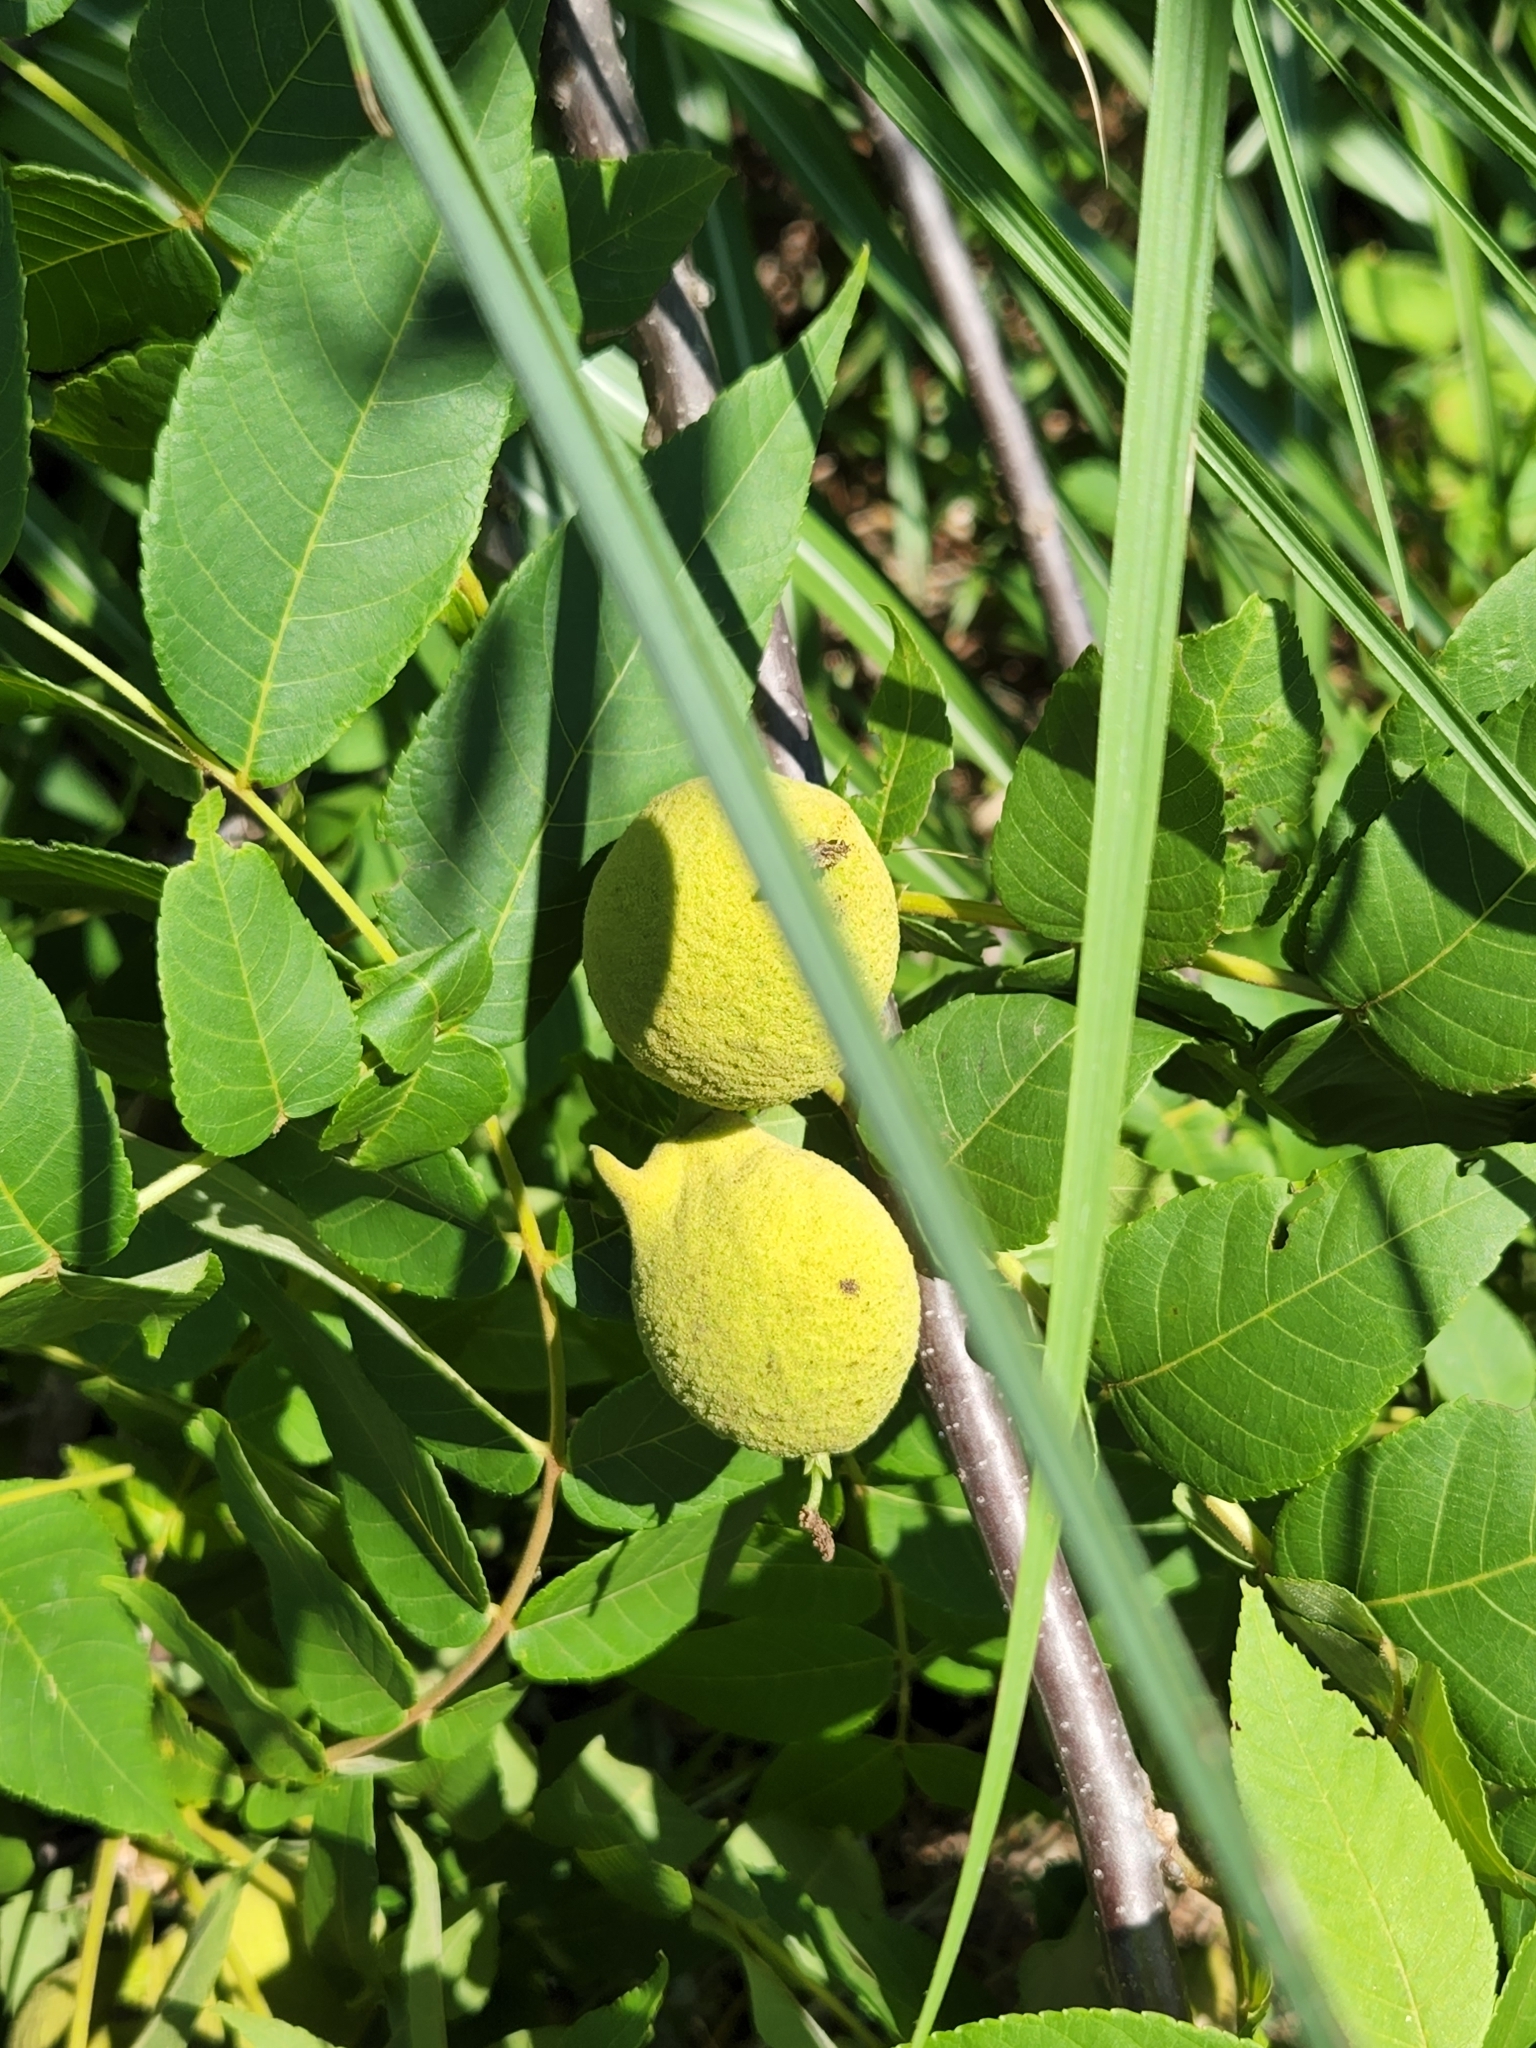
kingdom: Plantae
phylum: Tracheophyta
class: Magnoliopsida
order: Fagales
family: Juglandaceae
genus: Juglans
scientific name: Juglans nigra
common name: Black walnut
